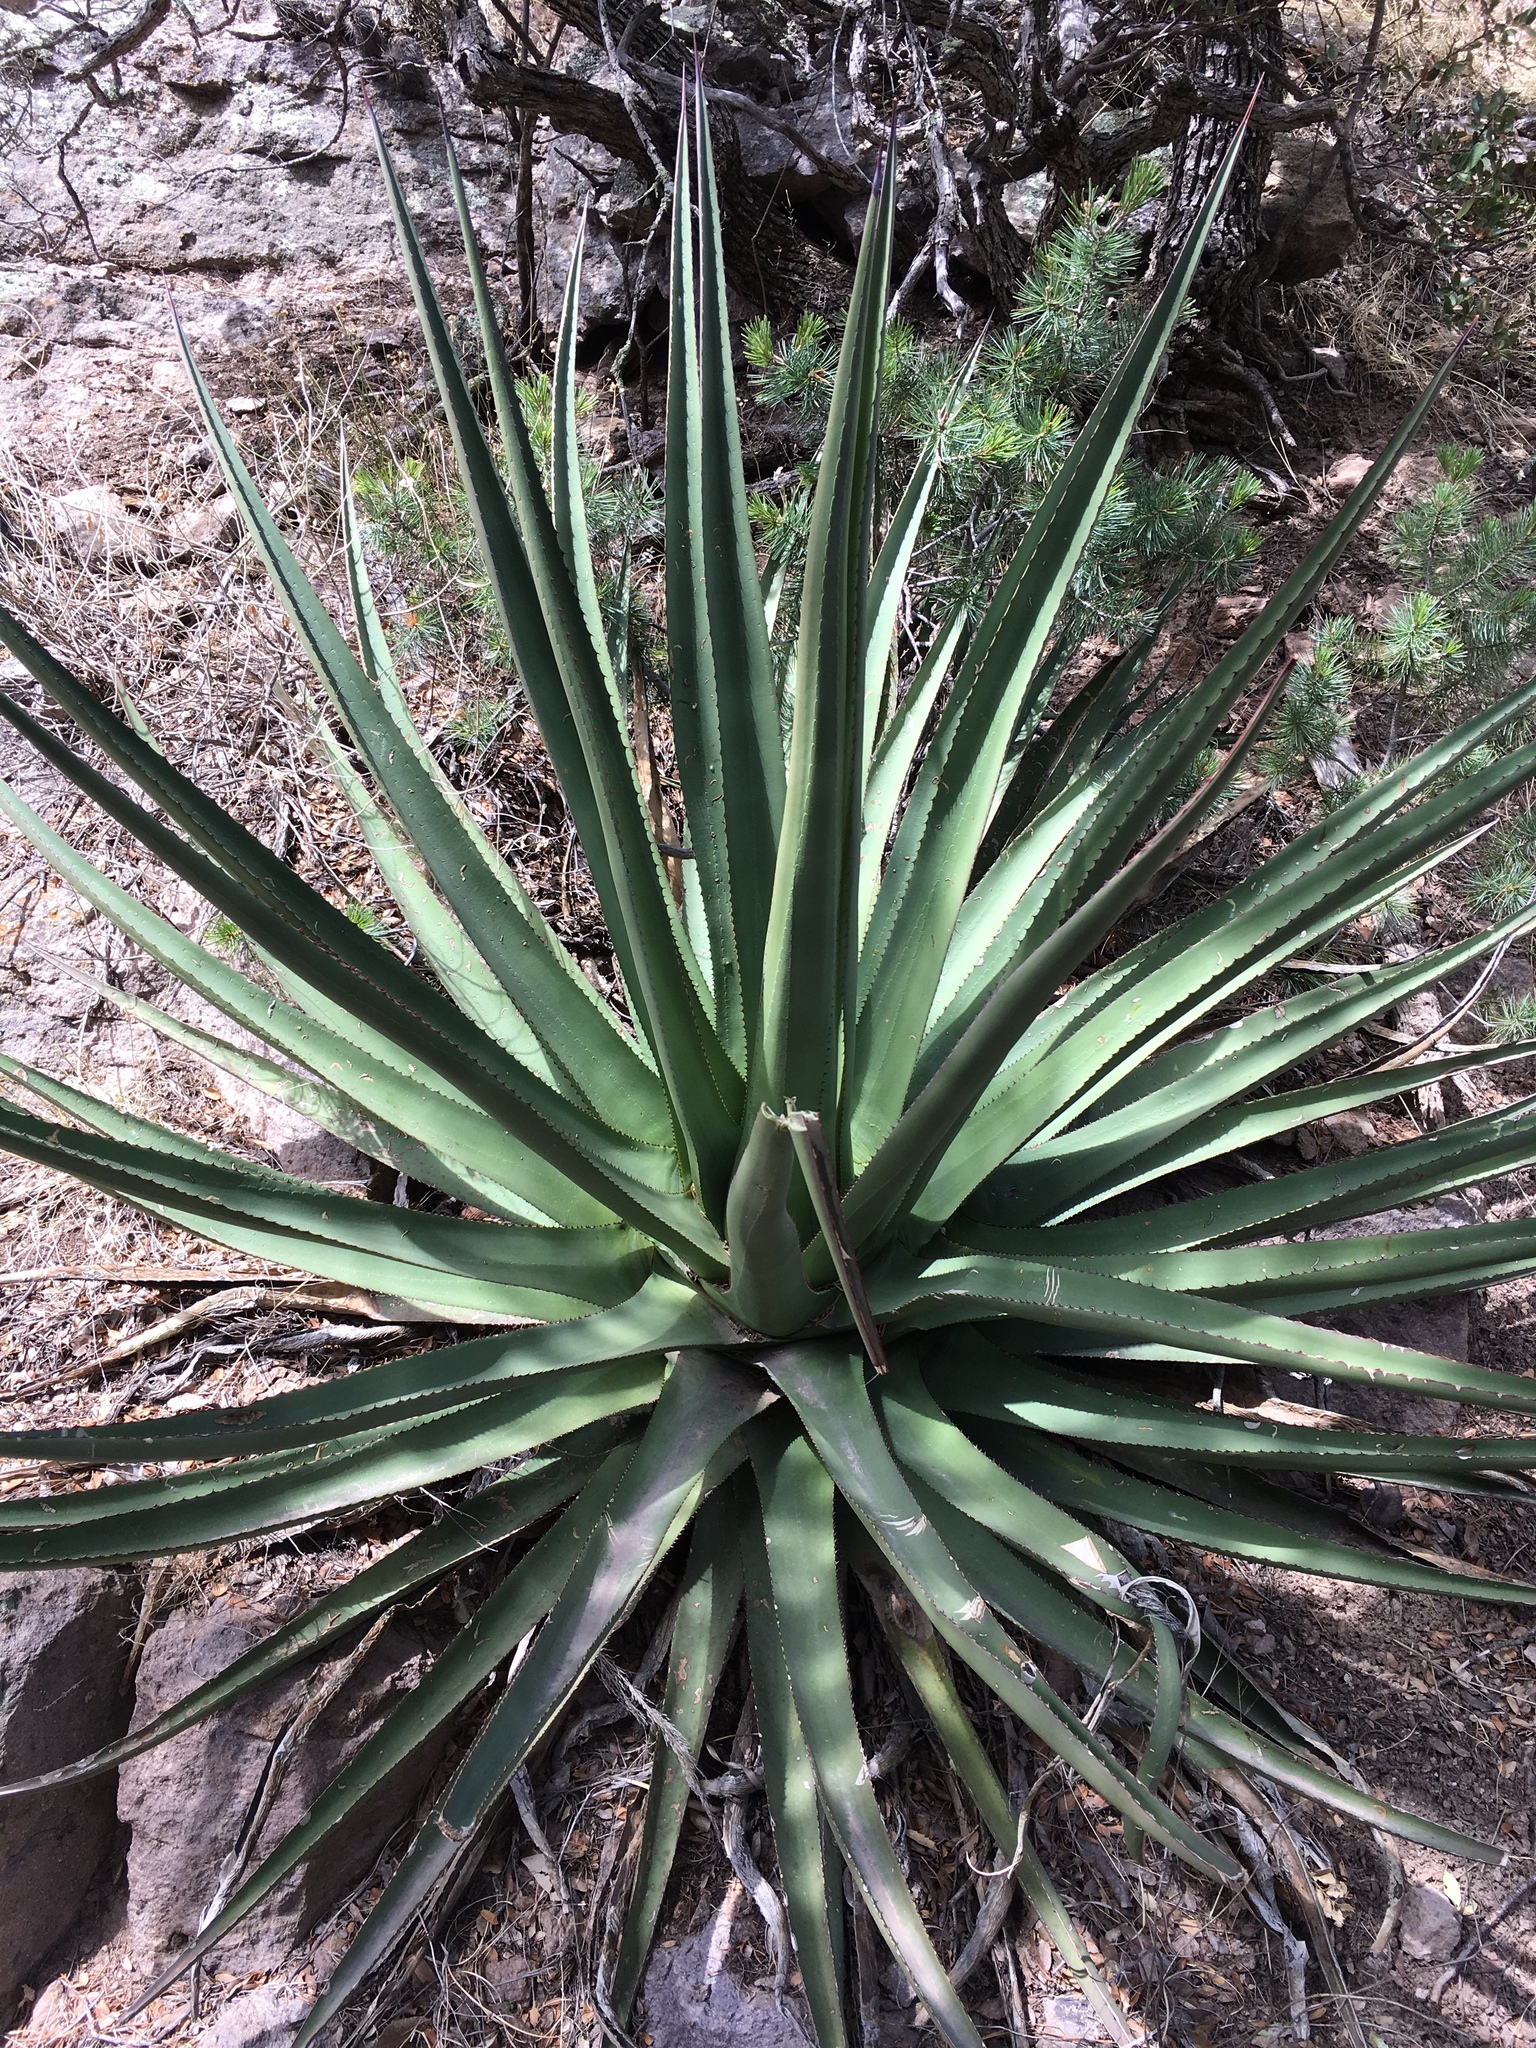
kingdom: Plantae
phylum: Tracheophyta
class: Liliopsida
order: Asparagales
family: Asparagaceae
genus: Agave
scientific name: Agave palmeri
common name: Palmer agave
